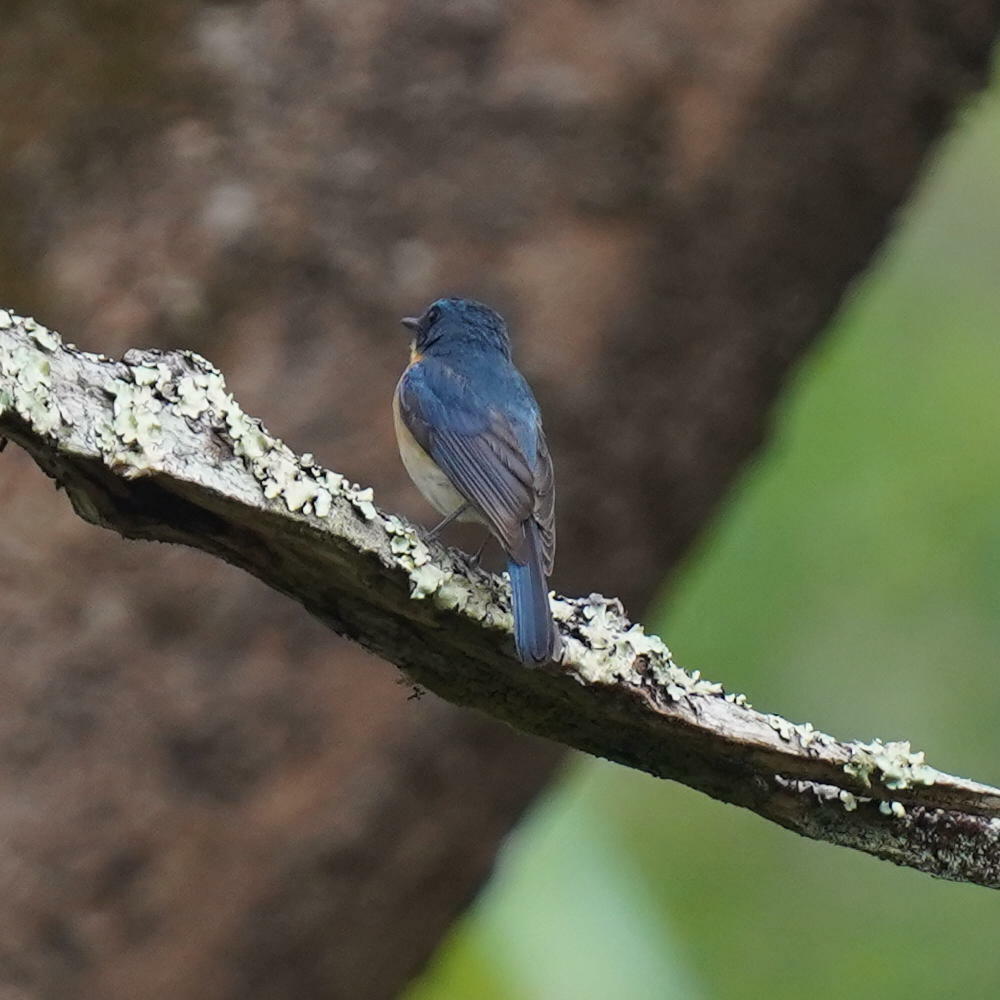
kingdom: Animalia
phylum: Chordata
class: Aves
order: Passeriformes
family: Muscicapidae
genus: Cyornis
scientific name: Cyornis tickelliae
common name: Tickell's blue flycatcher
